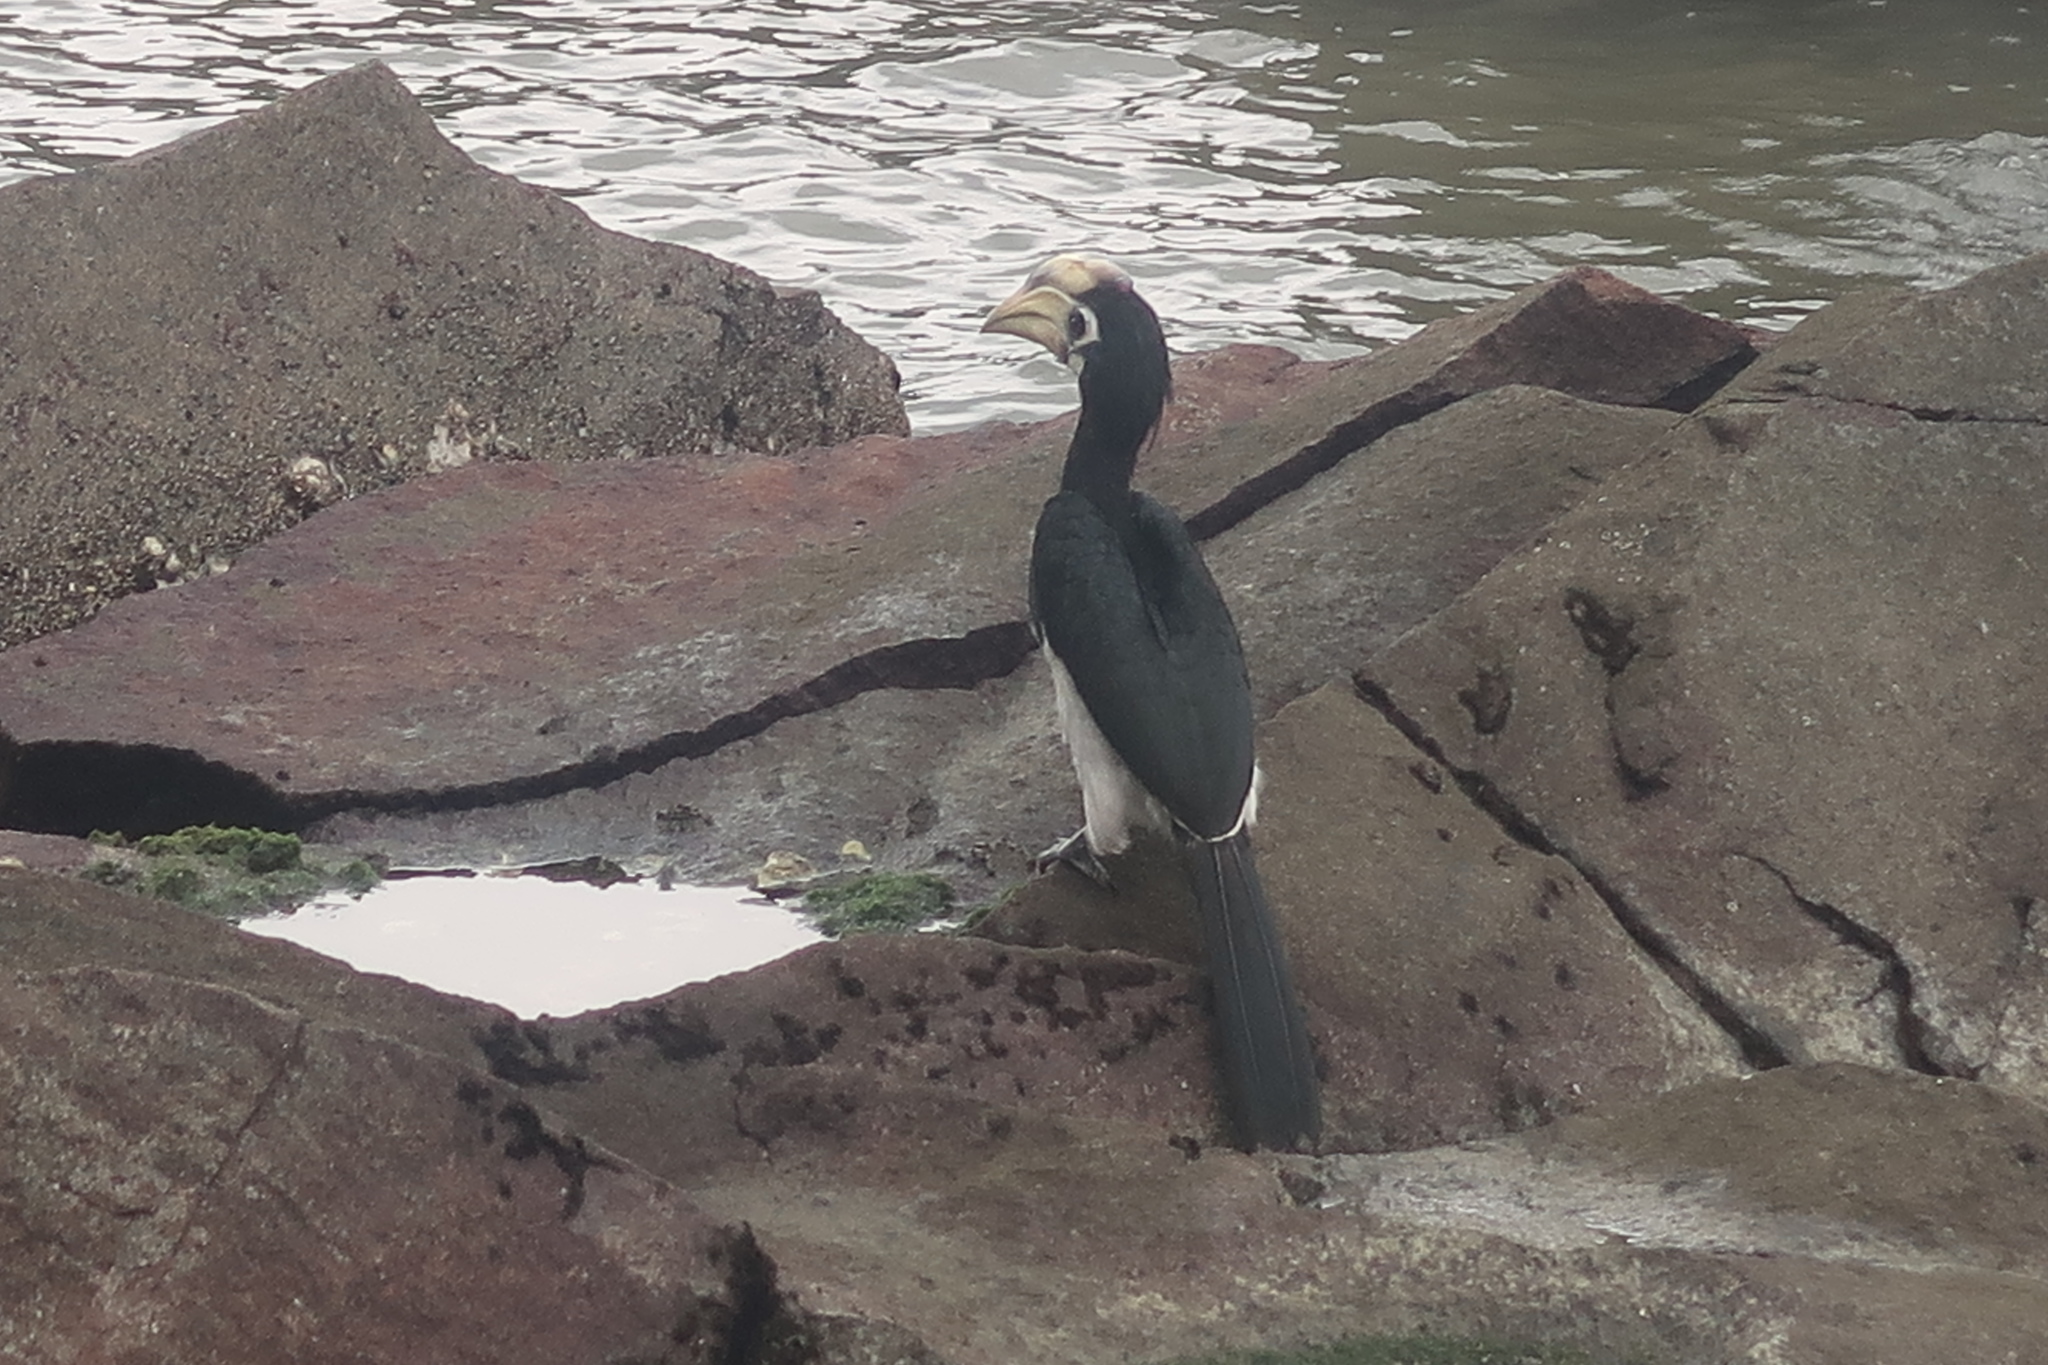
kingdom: Animalia
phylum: Chordata
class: Aves
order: Bucerotiformes
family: Bucerotidae
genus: Anthracoceros
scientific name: Anthracoceros albirostris
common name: Oriental pied-hornbill
